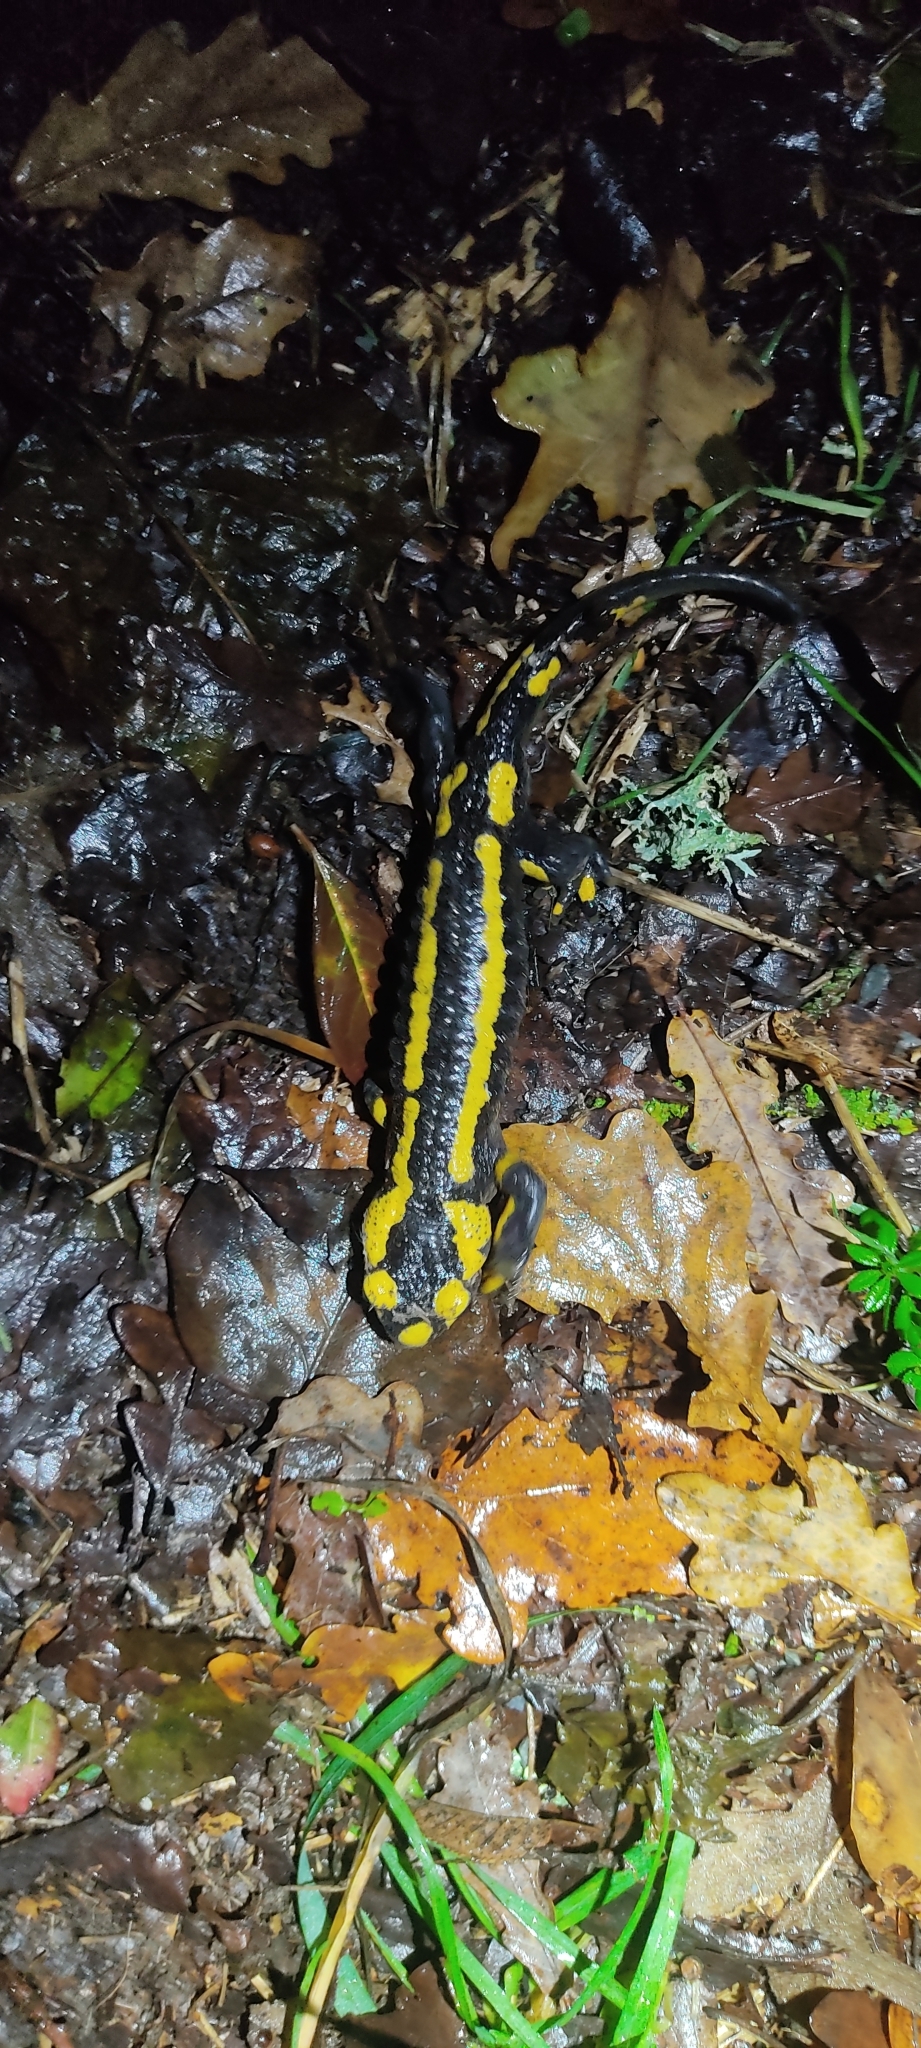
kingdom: Animalia
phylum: Chordata
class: Amphibia
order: Caudata
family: Salamandridae
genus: Salamandra
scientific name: Salamandra salamandra
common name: Fire salamander
